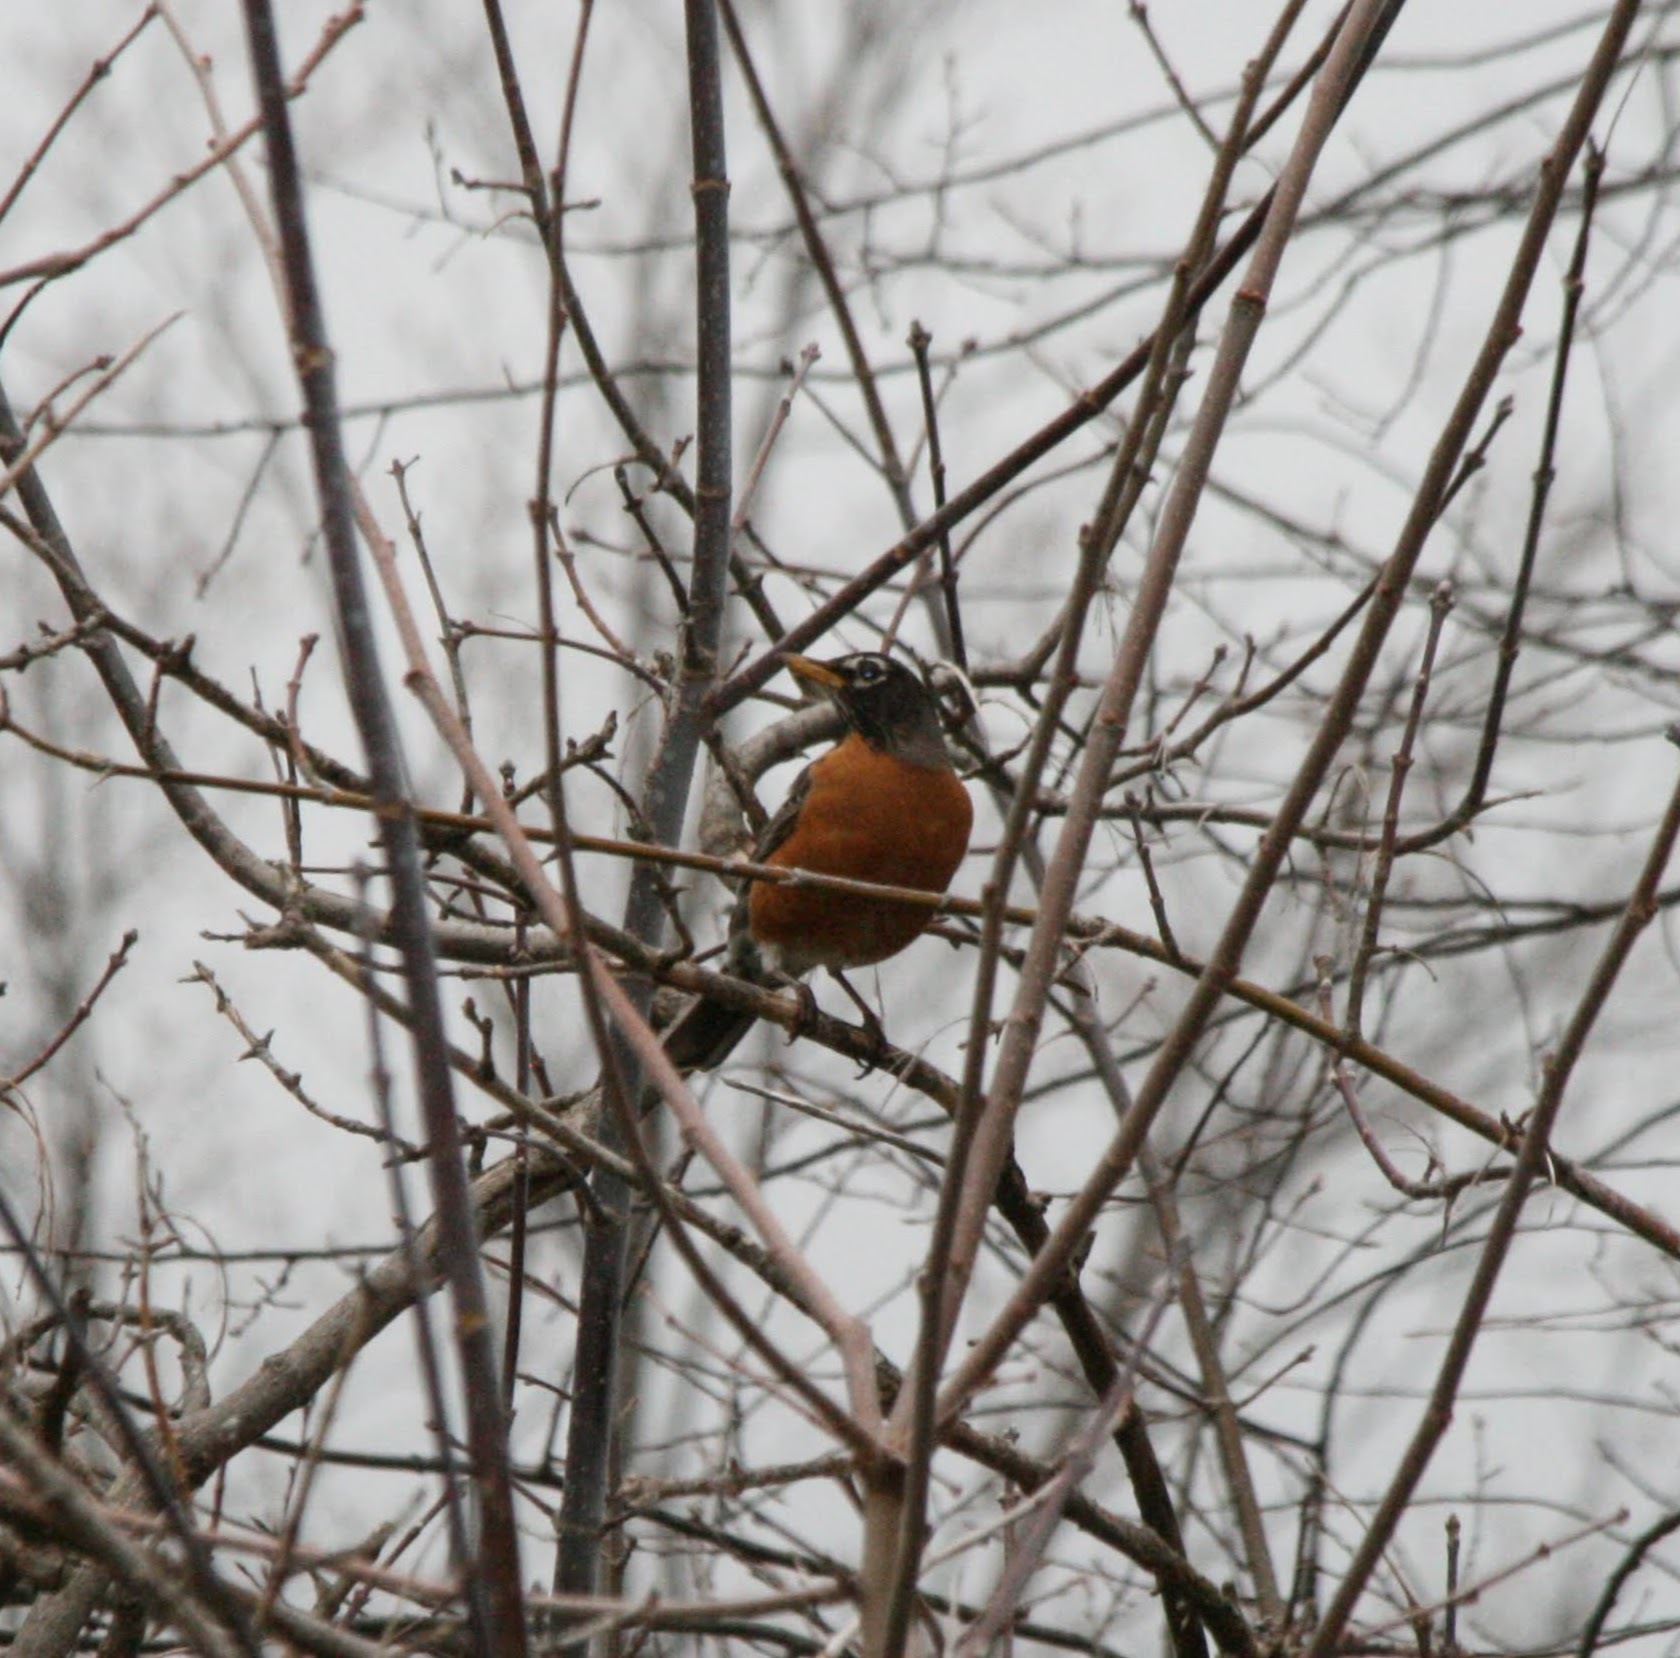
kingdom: Animalia
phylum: Chordata
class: Aves
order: Passeriformes
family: Turdidae
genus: Turdus
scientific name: Turdus migratorius
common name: American robin
